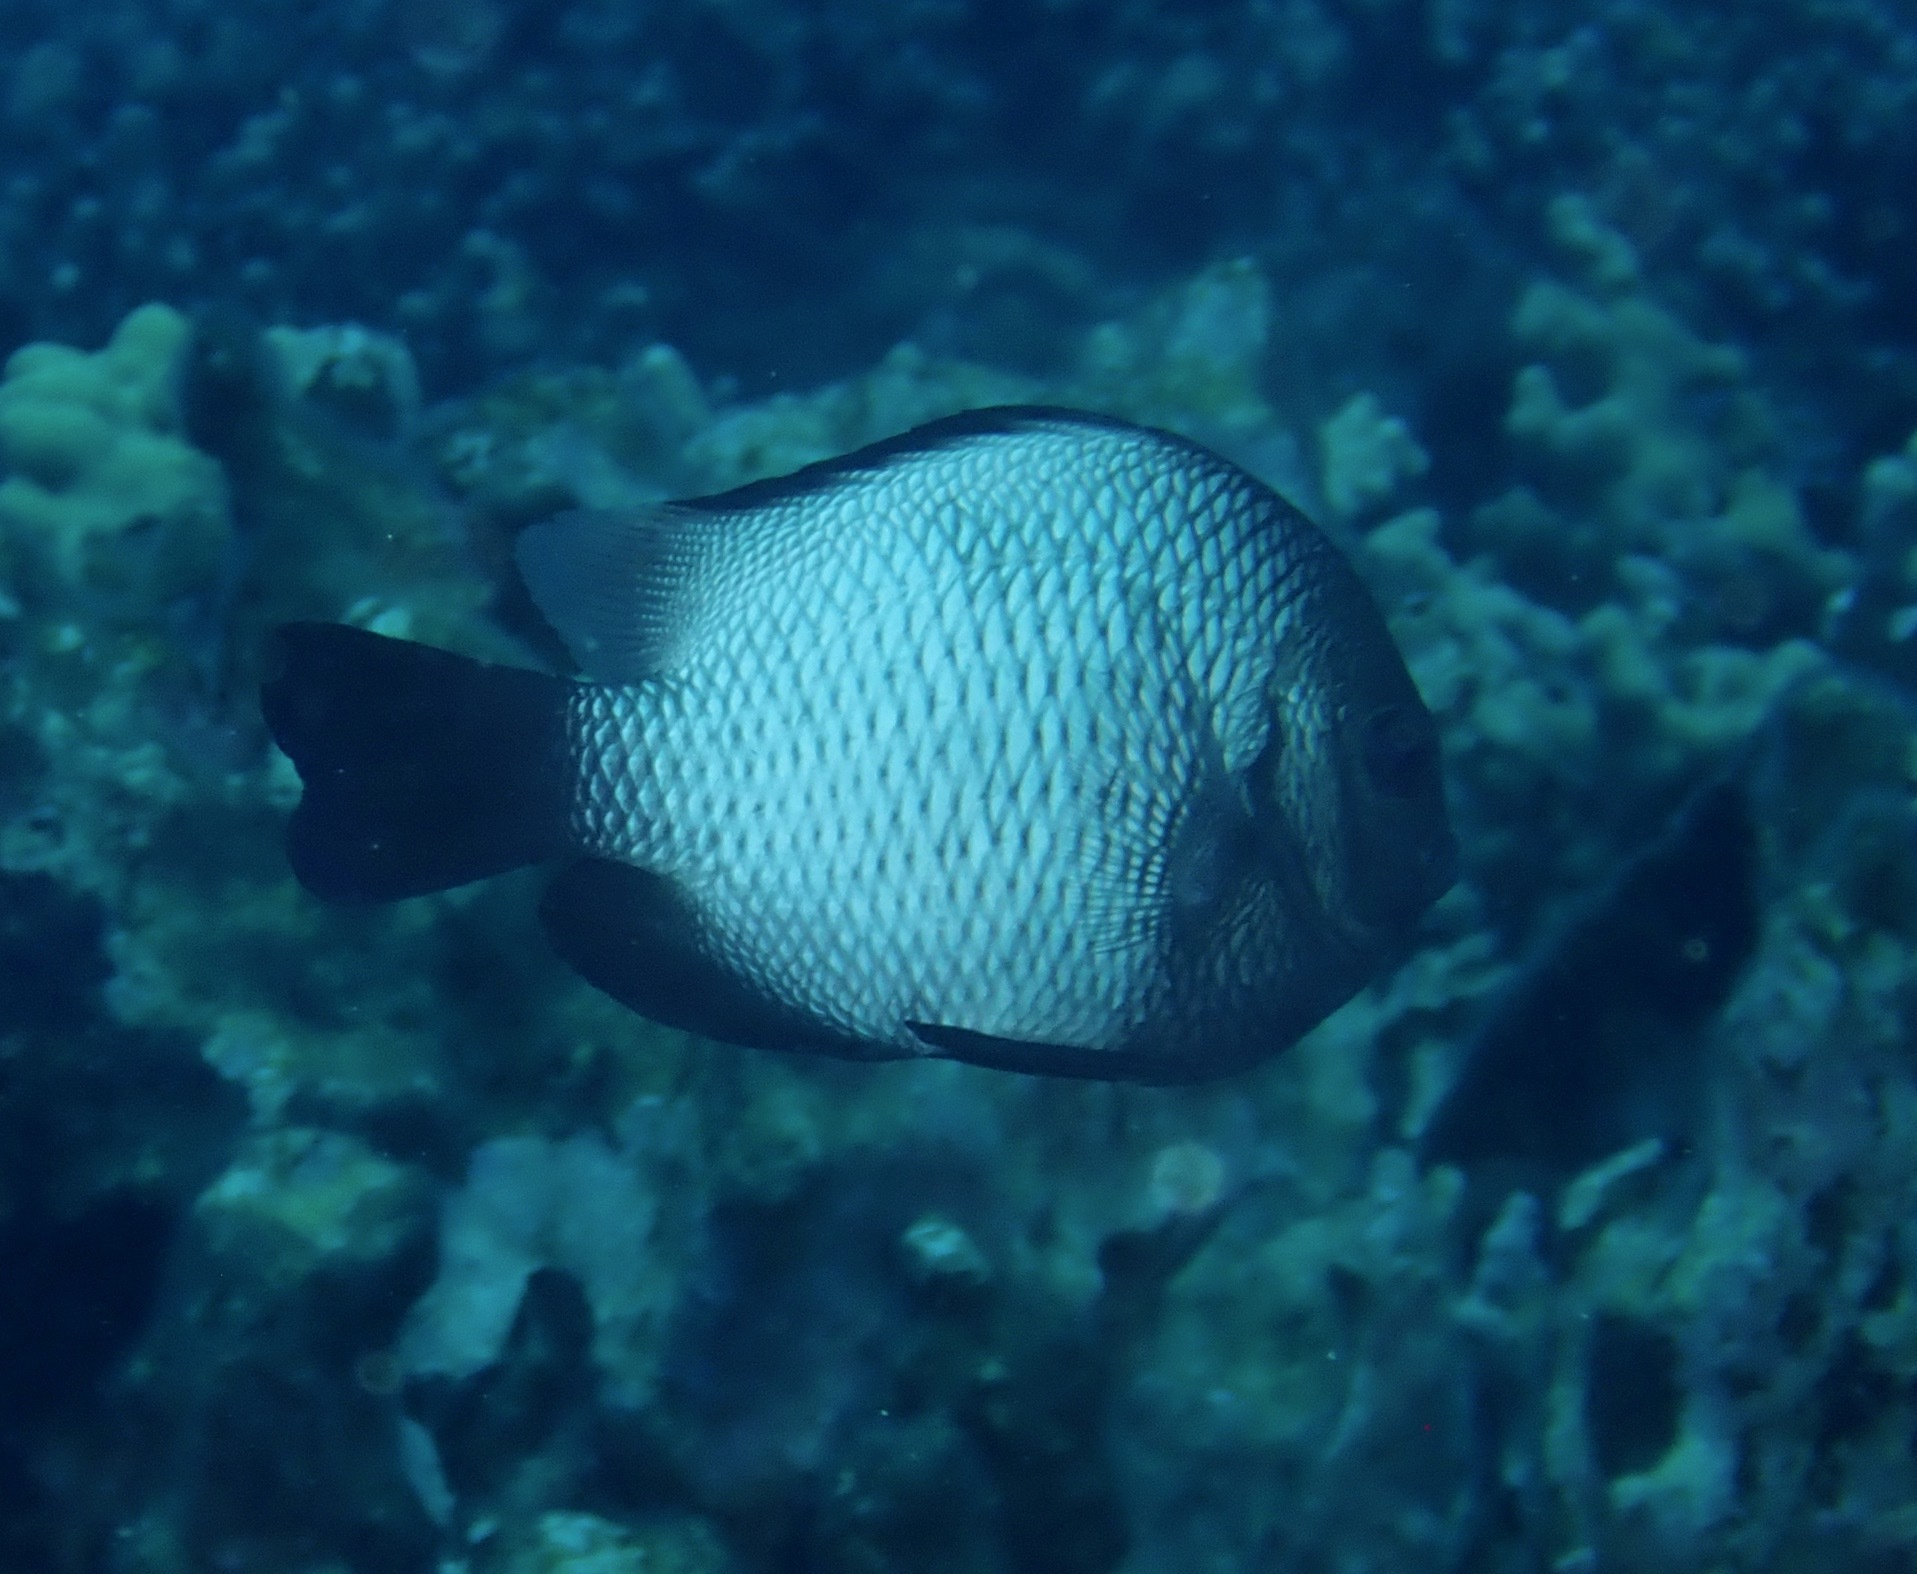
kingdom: Animalia
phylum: Chordata
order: Perciformes
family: Pomacentridae
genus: Dascyllus
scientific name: Dascyllus albisella
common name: Hawaiian dascyllus
